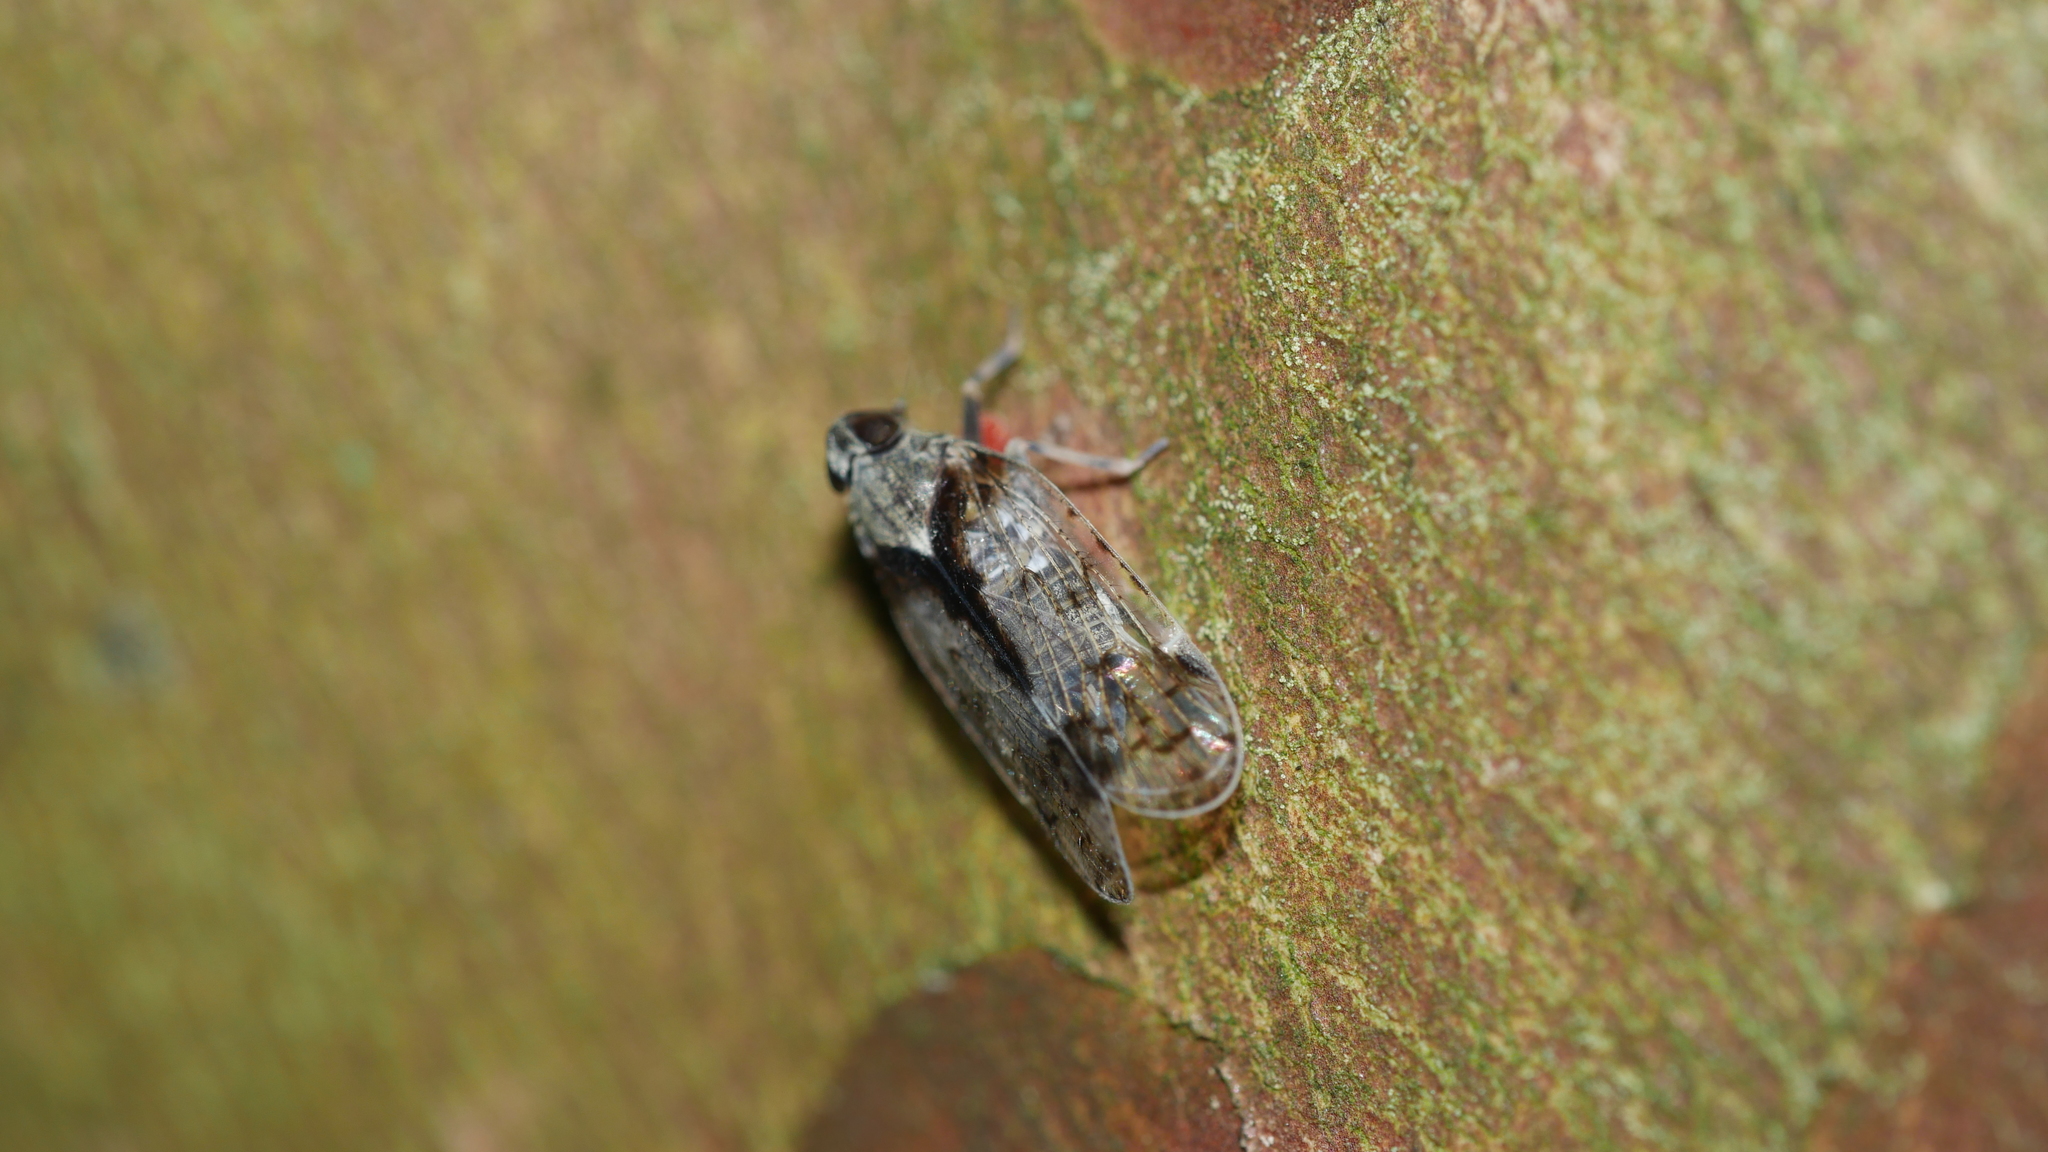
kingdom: Animalia
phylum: Arthropoda
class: Insecta
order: Hemiptera
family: Cixiidae
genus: Melanoliarus
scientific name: Melanoliarus placitus
